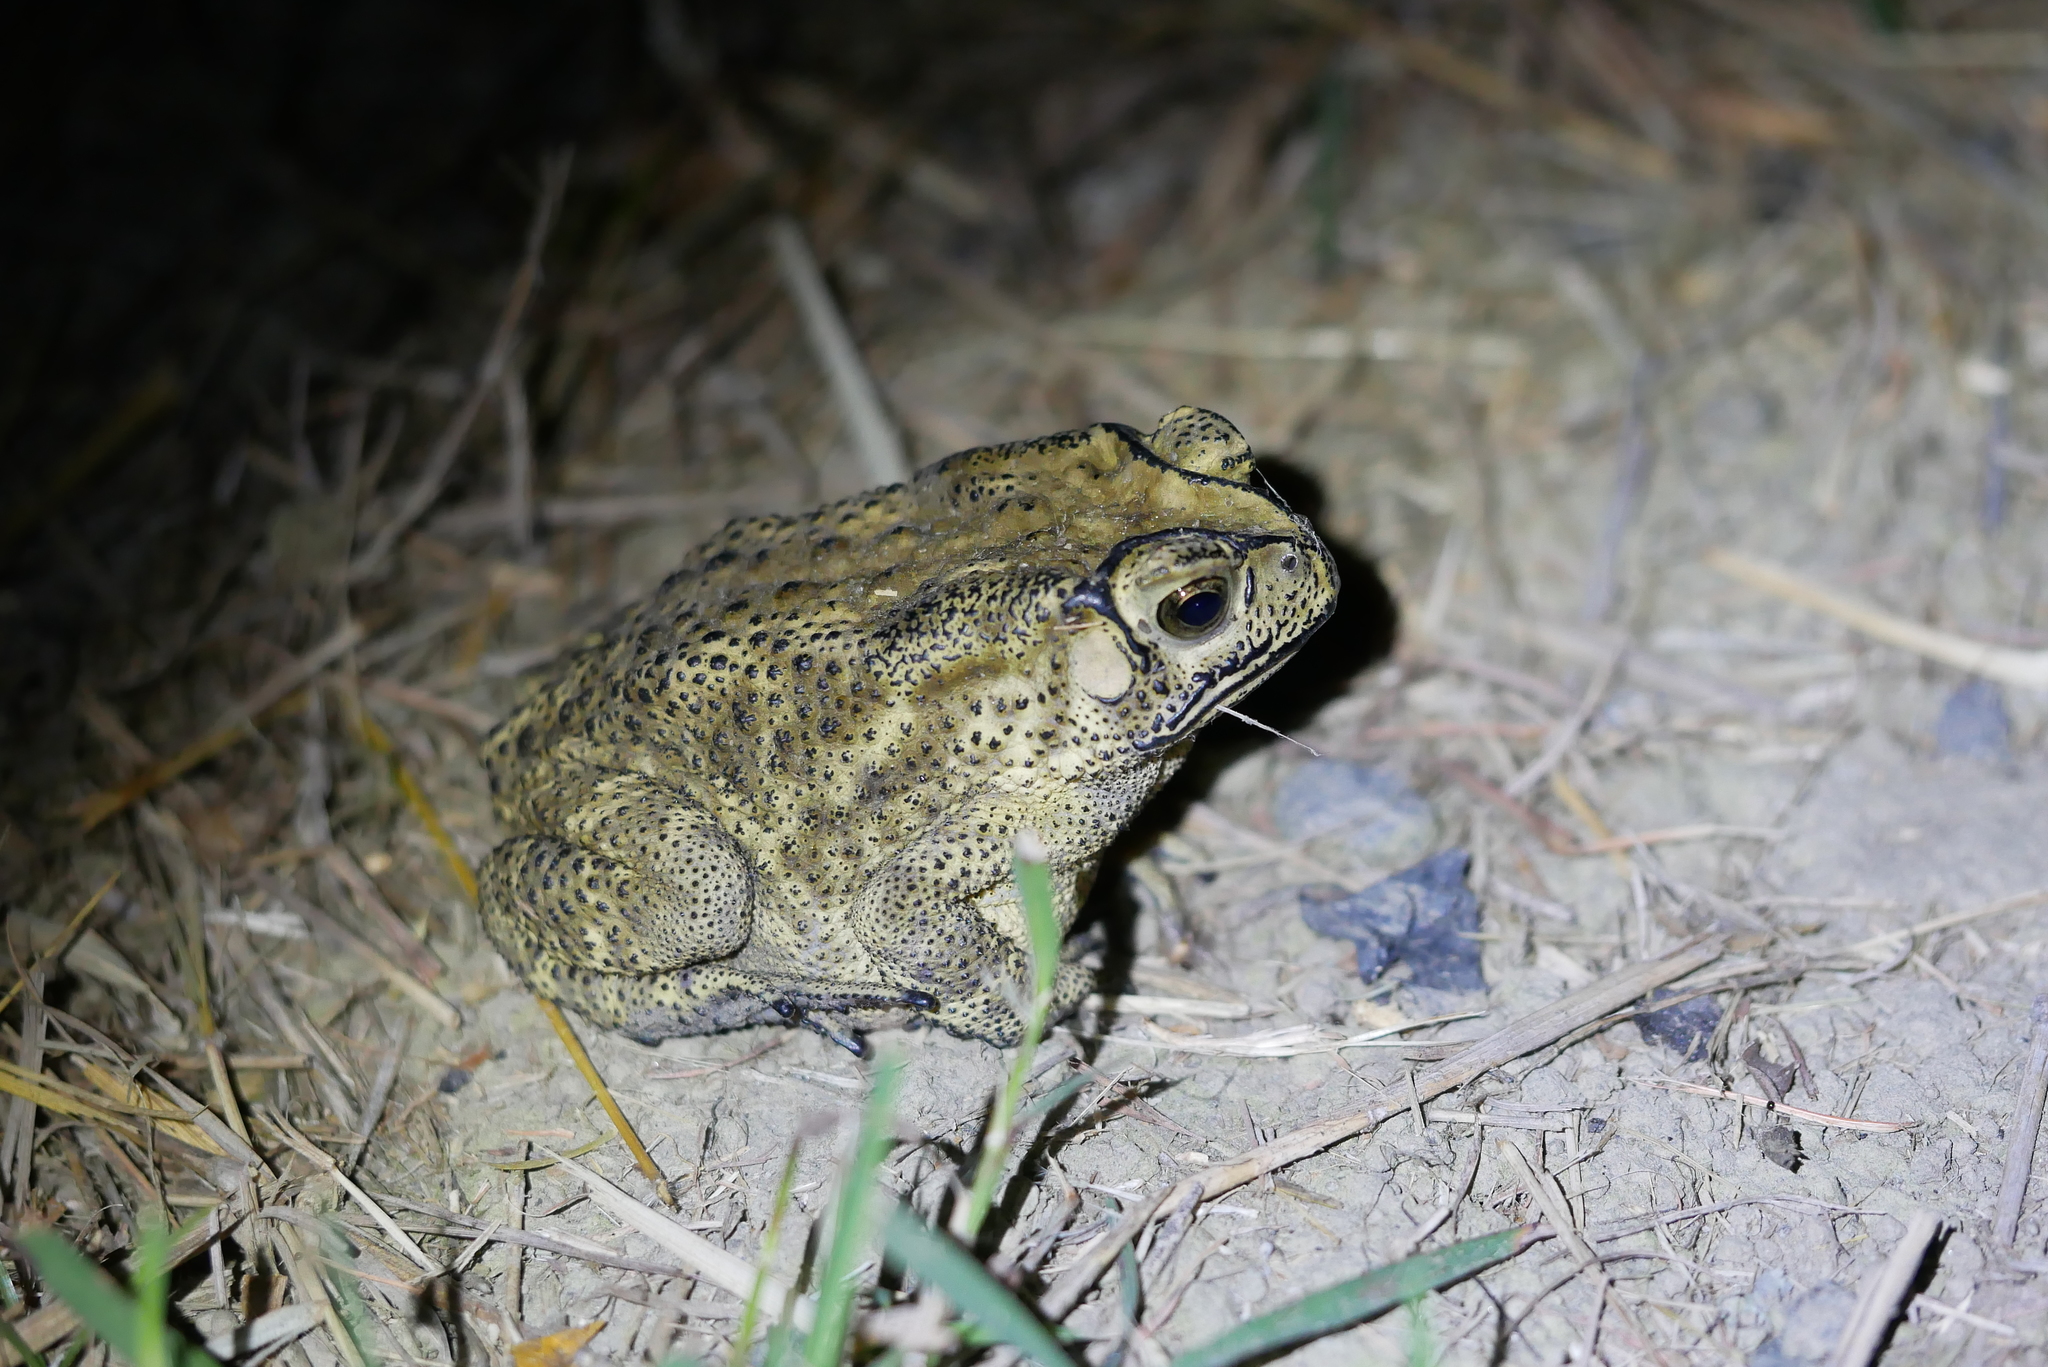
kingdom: Animalia
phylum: Chordata
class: Amphibia
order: Anura
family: Bufonidae
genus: Duttaphrynus
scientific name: Duttaphrynus melanostictus
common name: Common sunda toad
